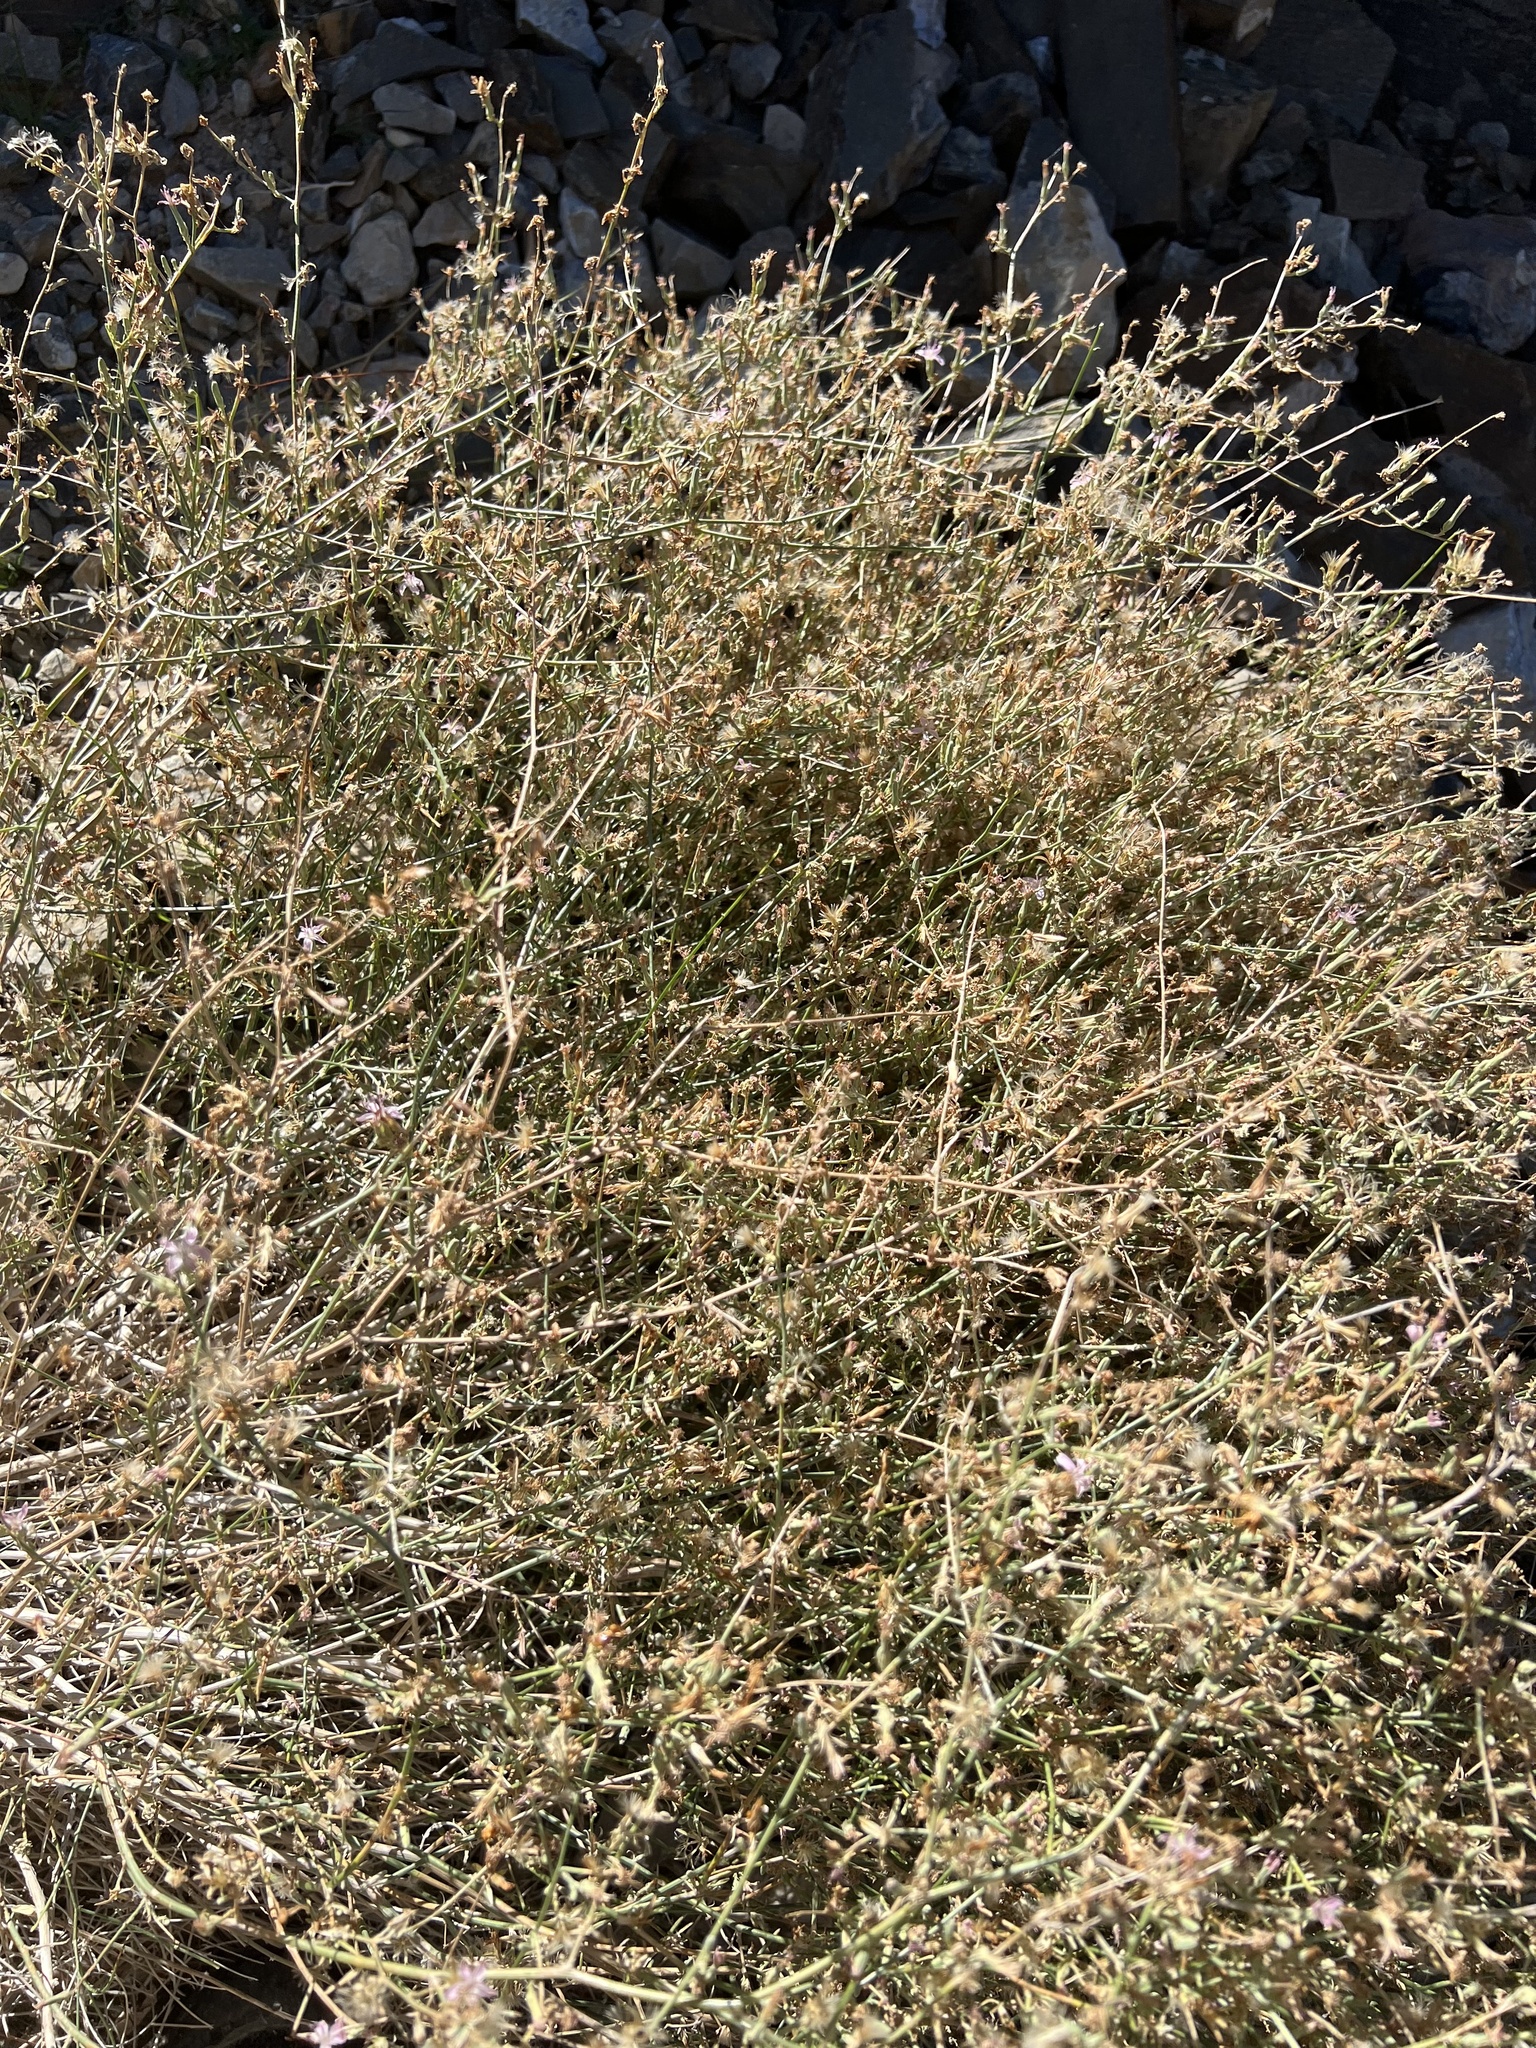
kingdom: Plantae
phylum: Tracheophyta
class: Magnoliopsida
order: Asterales
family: Asteraceae
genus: Stephanomeria
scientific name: Stephanomeria pauciflora
